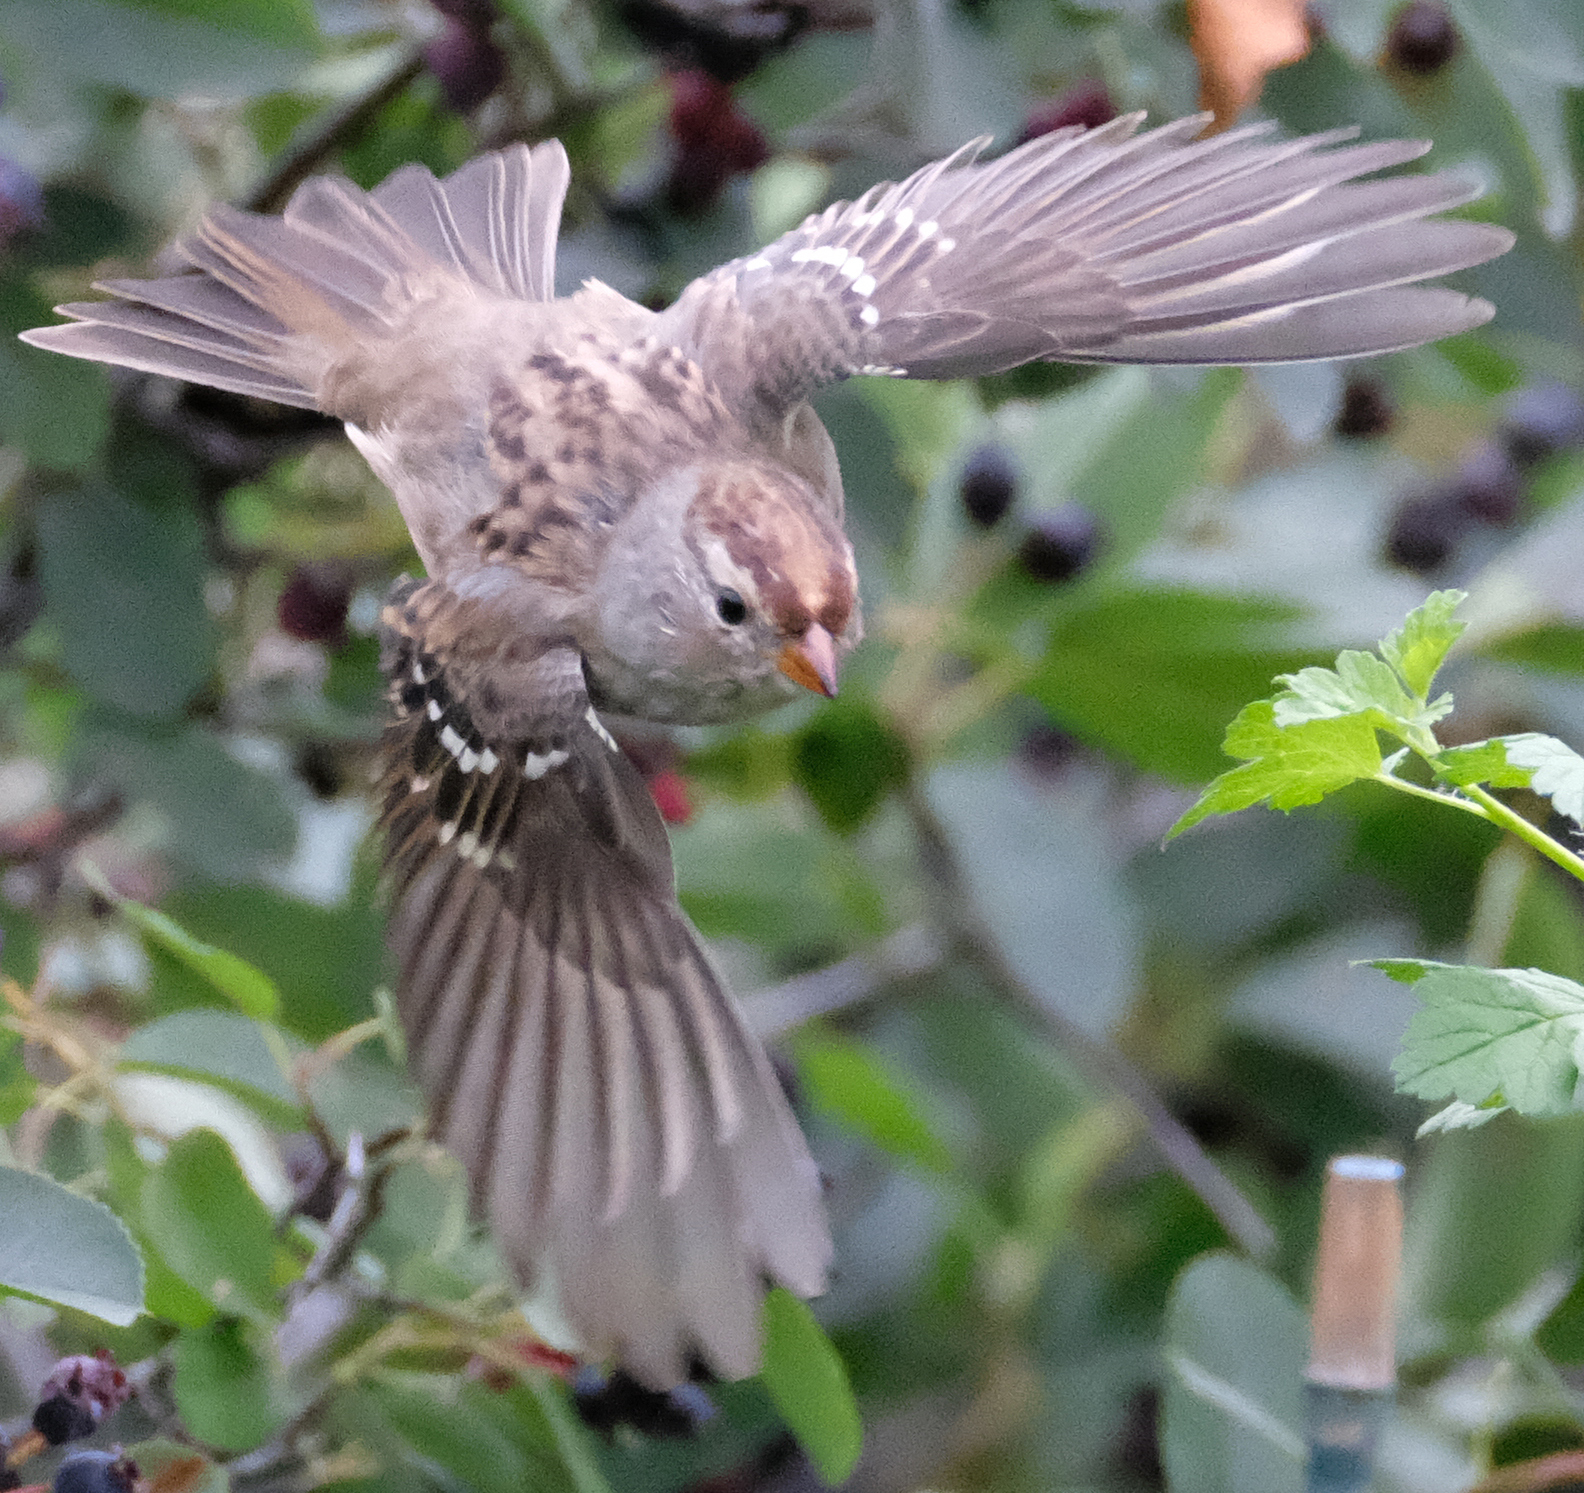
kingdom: Animalia
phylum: Chordata
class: Aves
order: Passeriformes
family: Passerellidae
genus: Zonotrichia
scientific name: Zonotrichia leucophrys
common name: White-crowned sparrow
